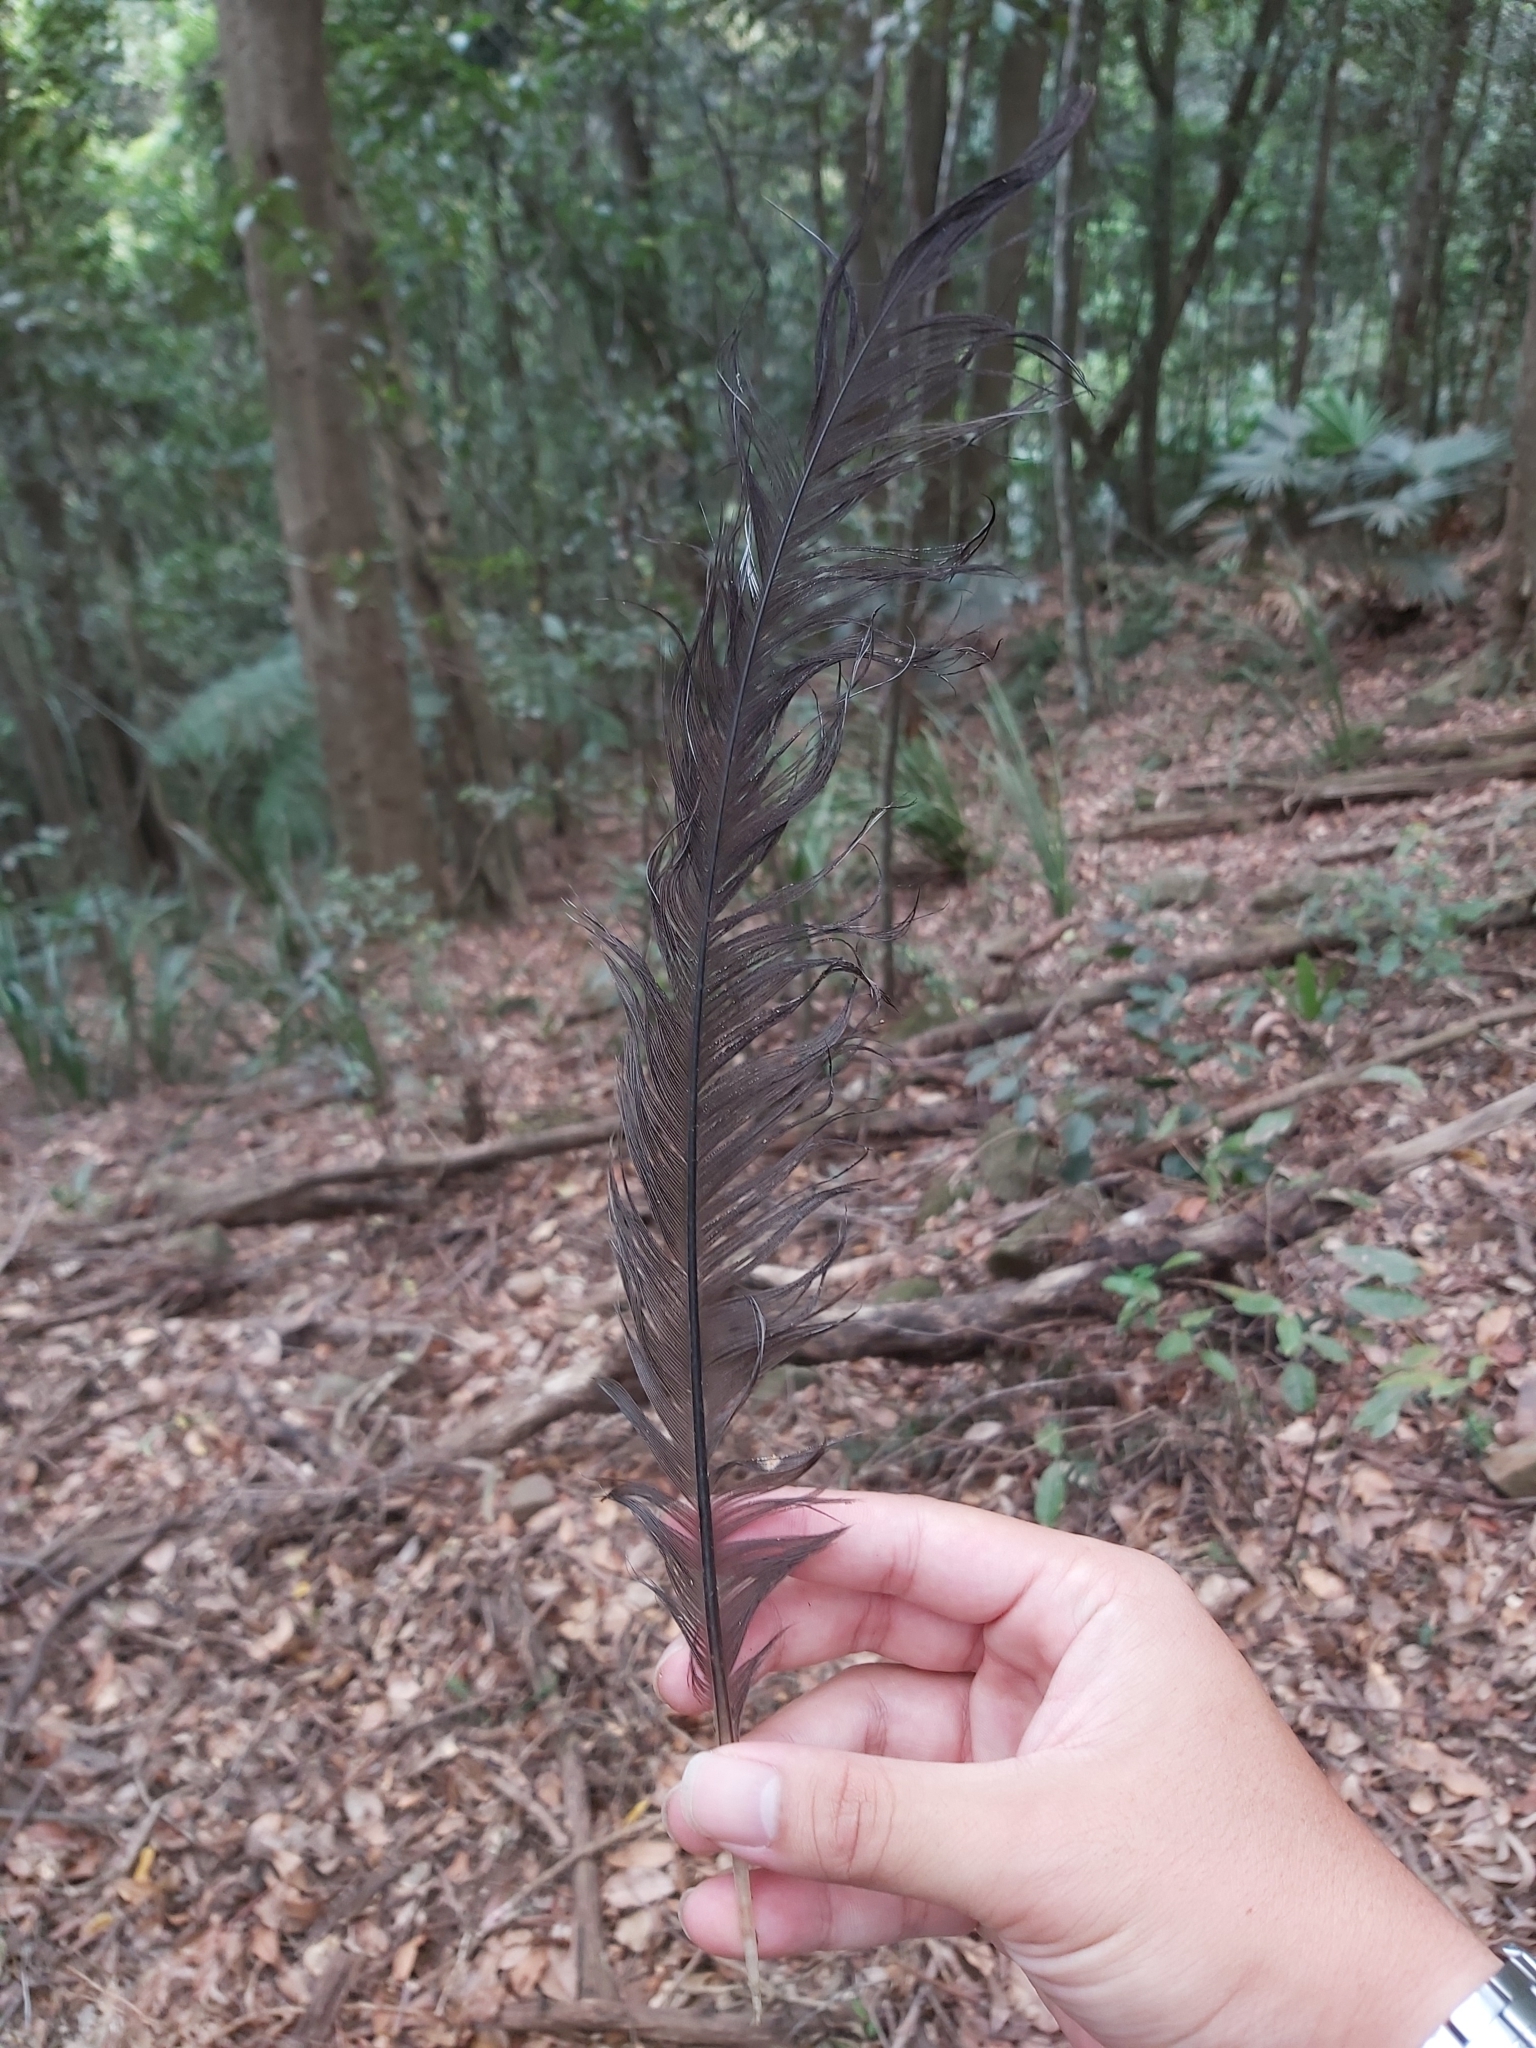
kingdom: Animalia
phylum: Chordata
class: Aves
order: Passeriformes
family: Menuridae
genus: Menura
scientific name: Menura novaehollandiae
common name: Superb lyrebird
